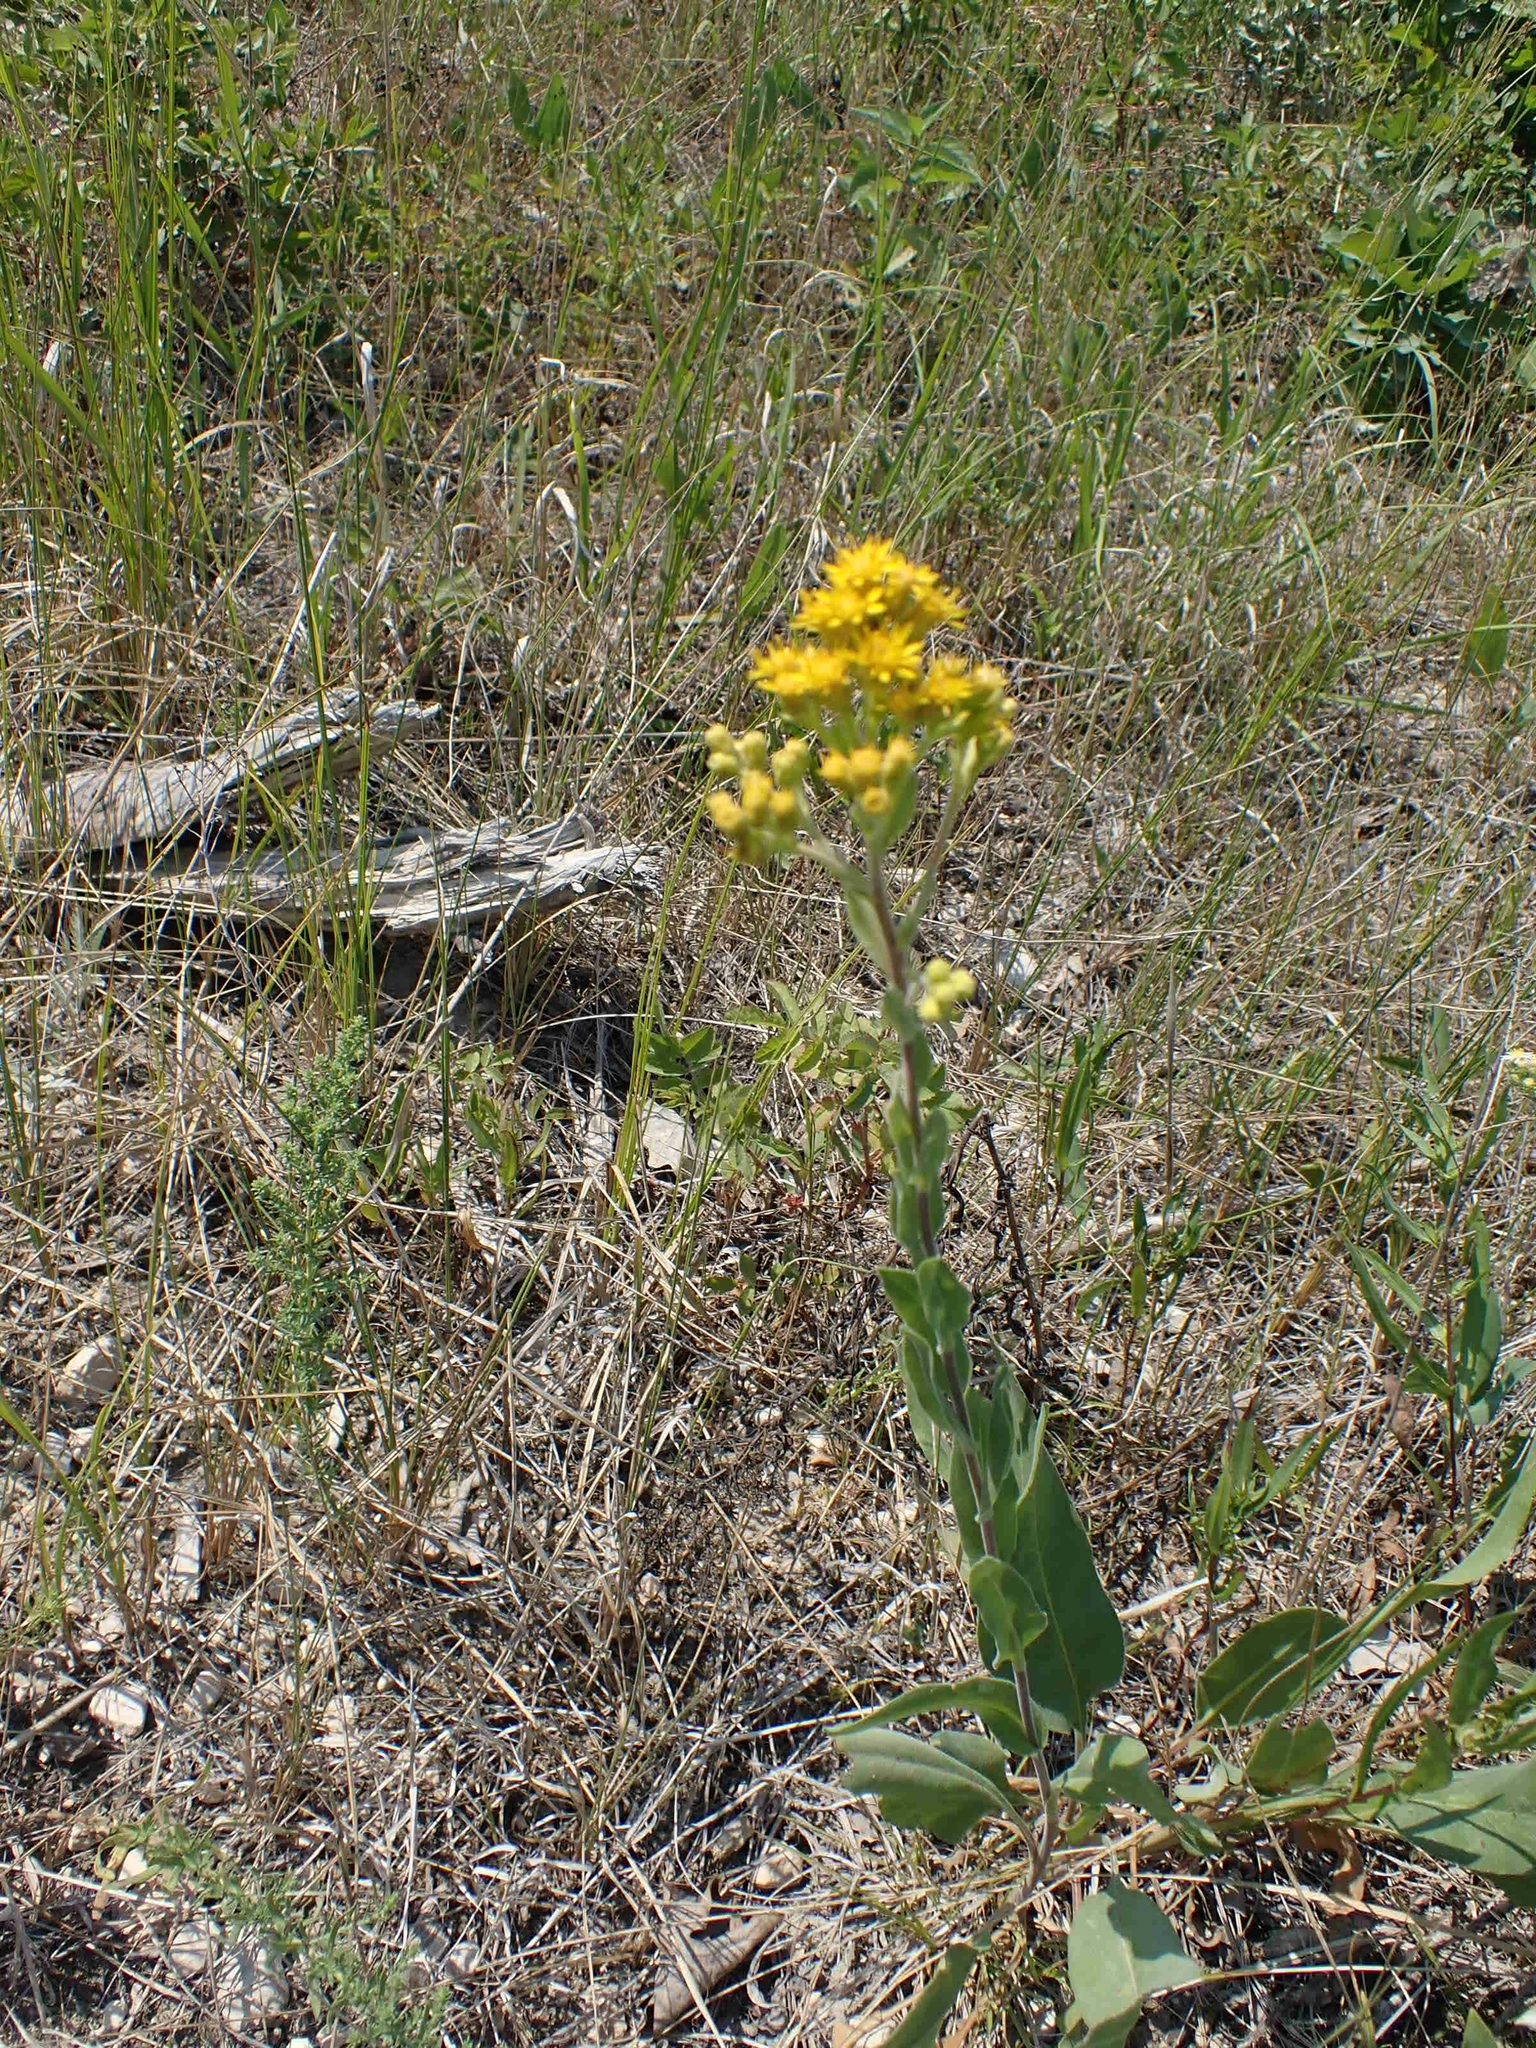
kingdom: Plantae
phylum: Tracheophyta
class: Magnoliopsida
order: Asterales
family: Asteraceae
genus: Solidago
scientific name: Solidago rigida
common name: Rigid goldenrod
